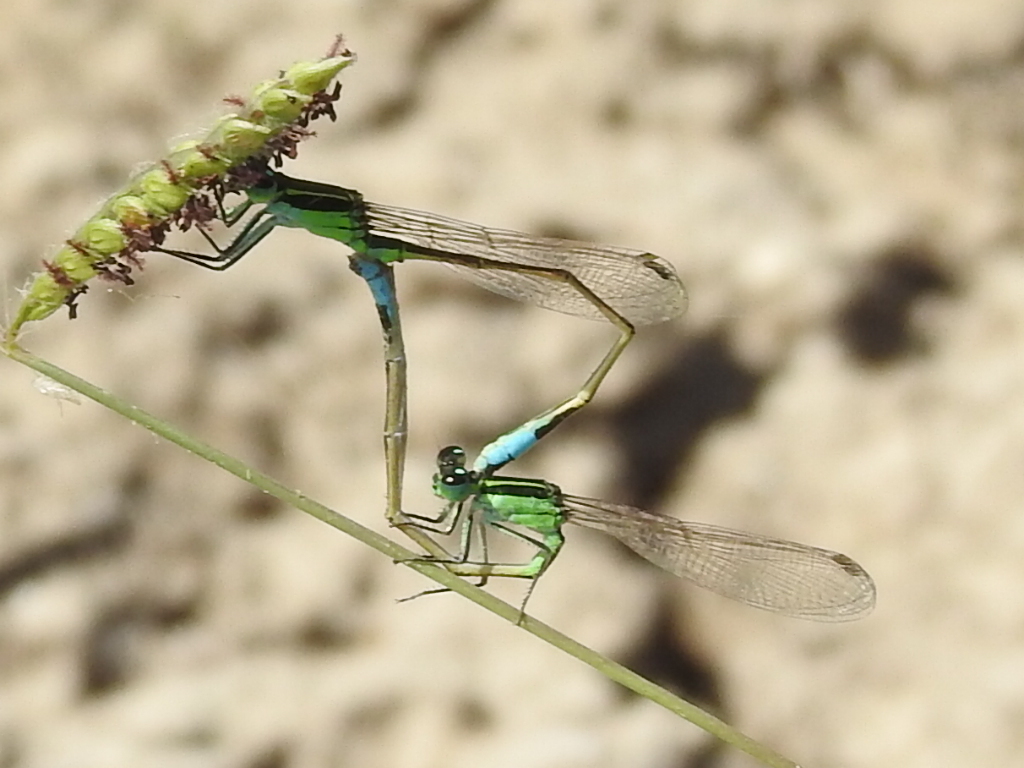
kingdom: Animalia
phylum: Arthropoda
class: Insecta
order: Odonata
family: Coenagrionidae
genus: Ischnura
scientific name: Ischnura ramburii
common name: Rambur's forktail
